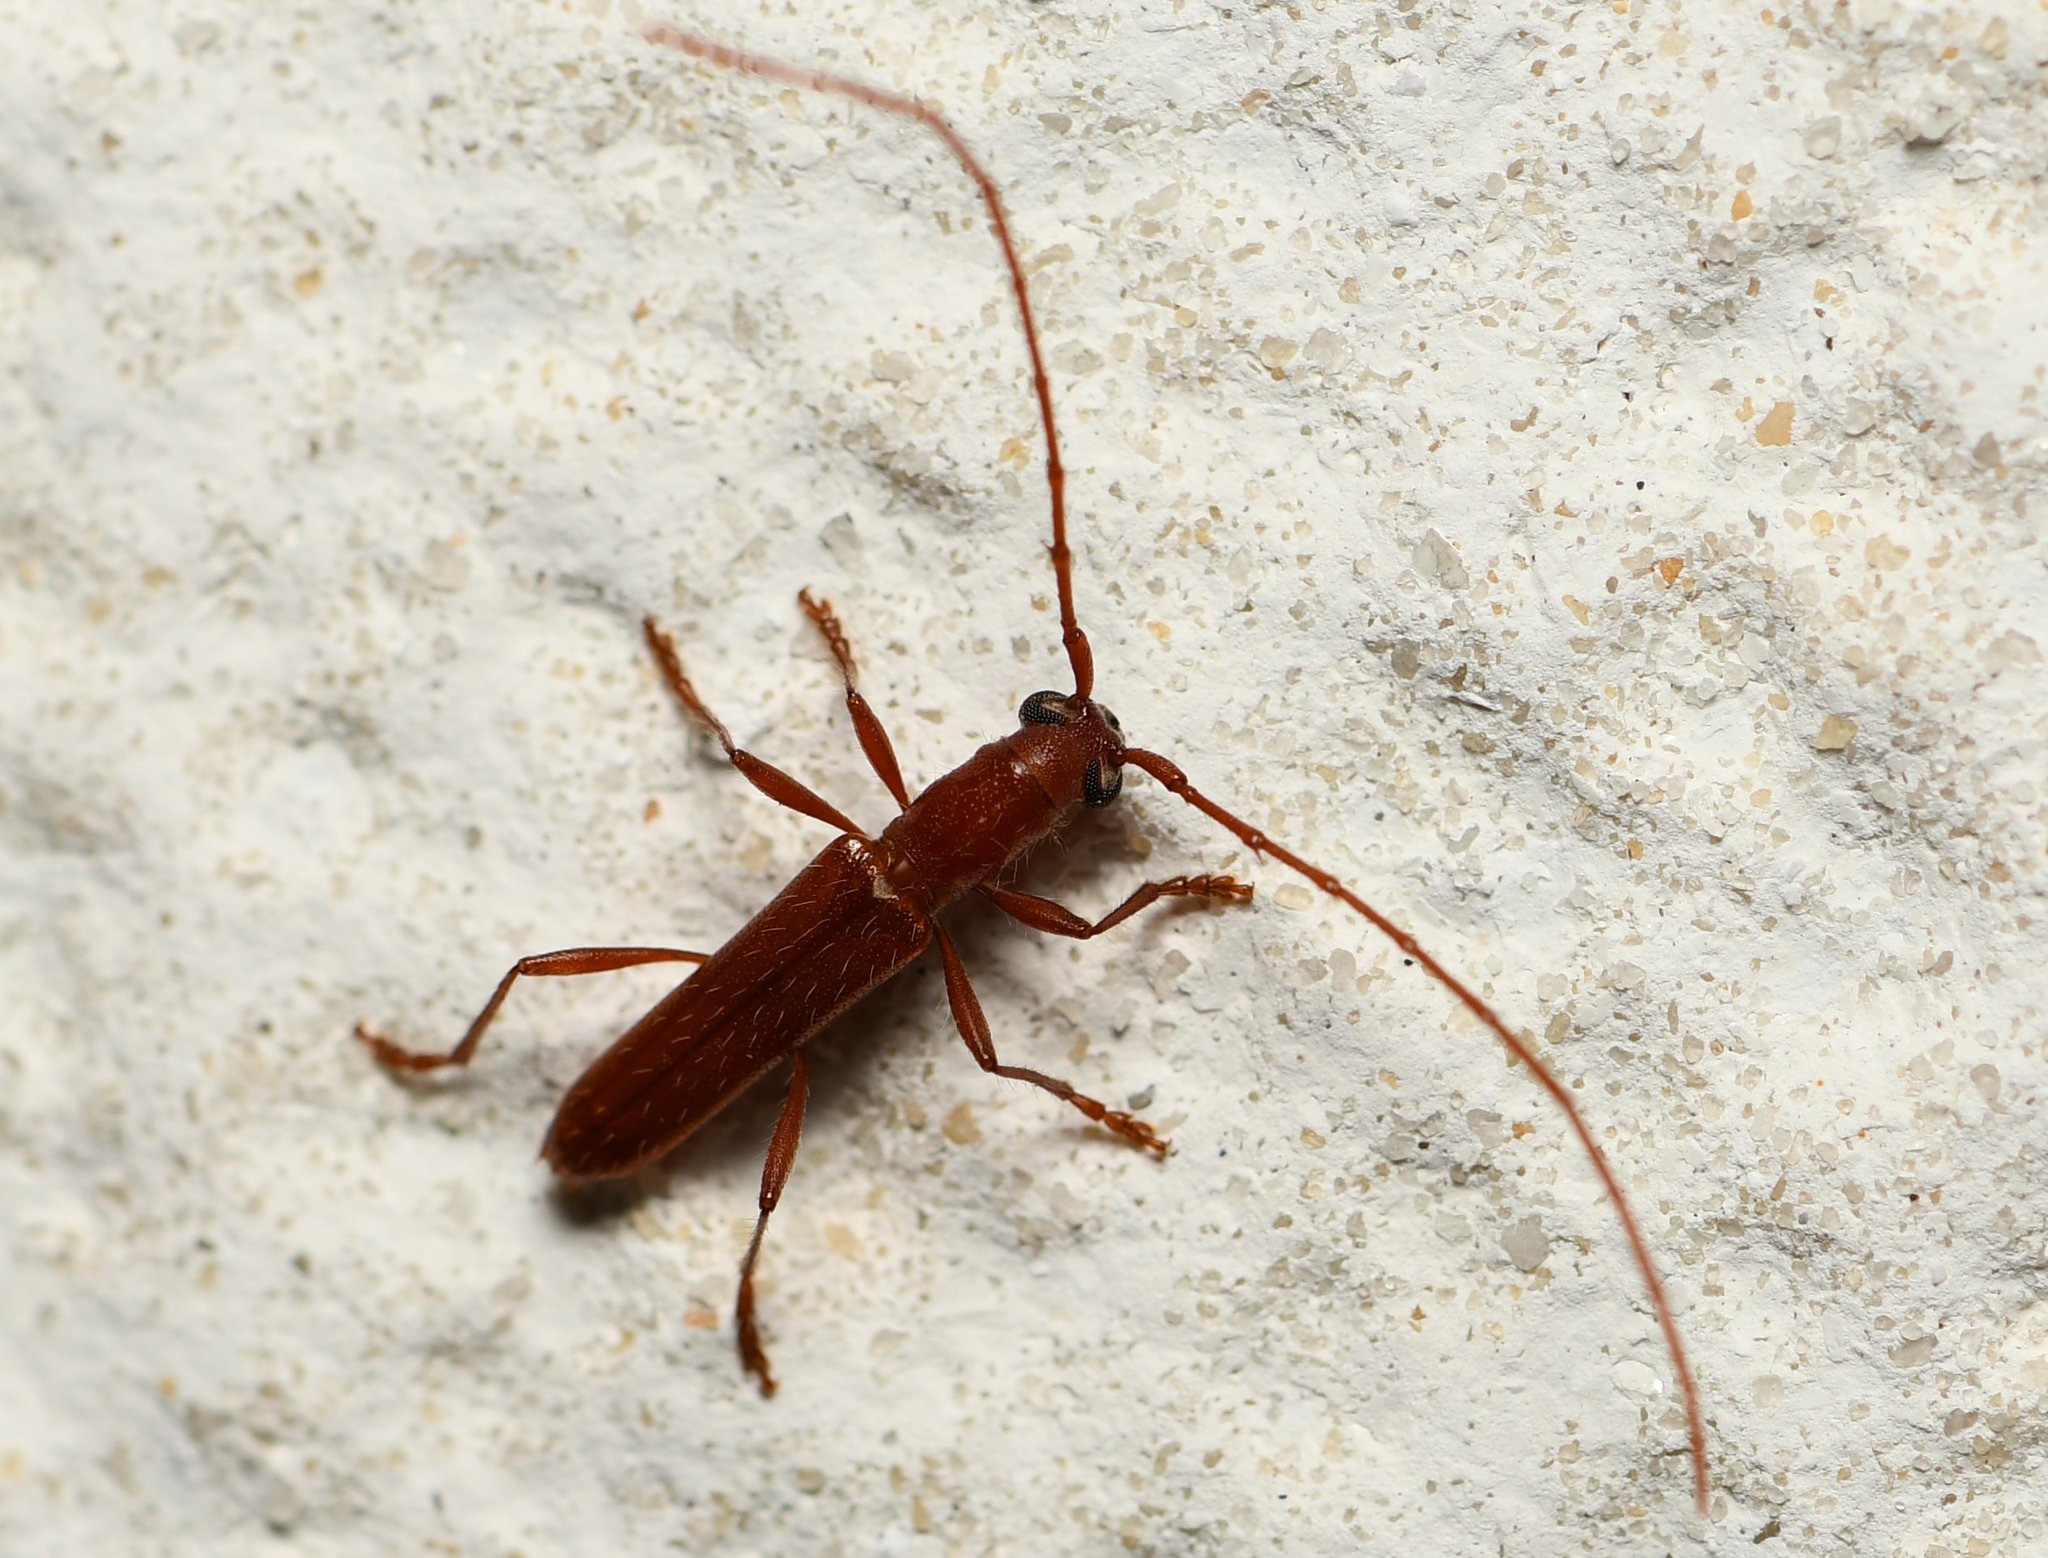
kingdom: Animalia
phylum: Arthropoda
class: Insecta
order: Coleoptera
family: Cerambycidae
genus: Psyrassa
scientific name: Psyrassa pertenuis
